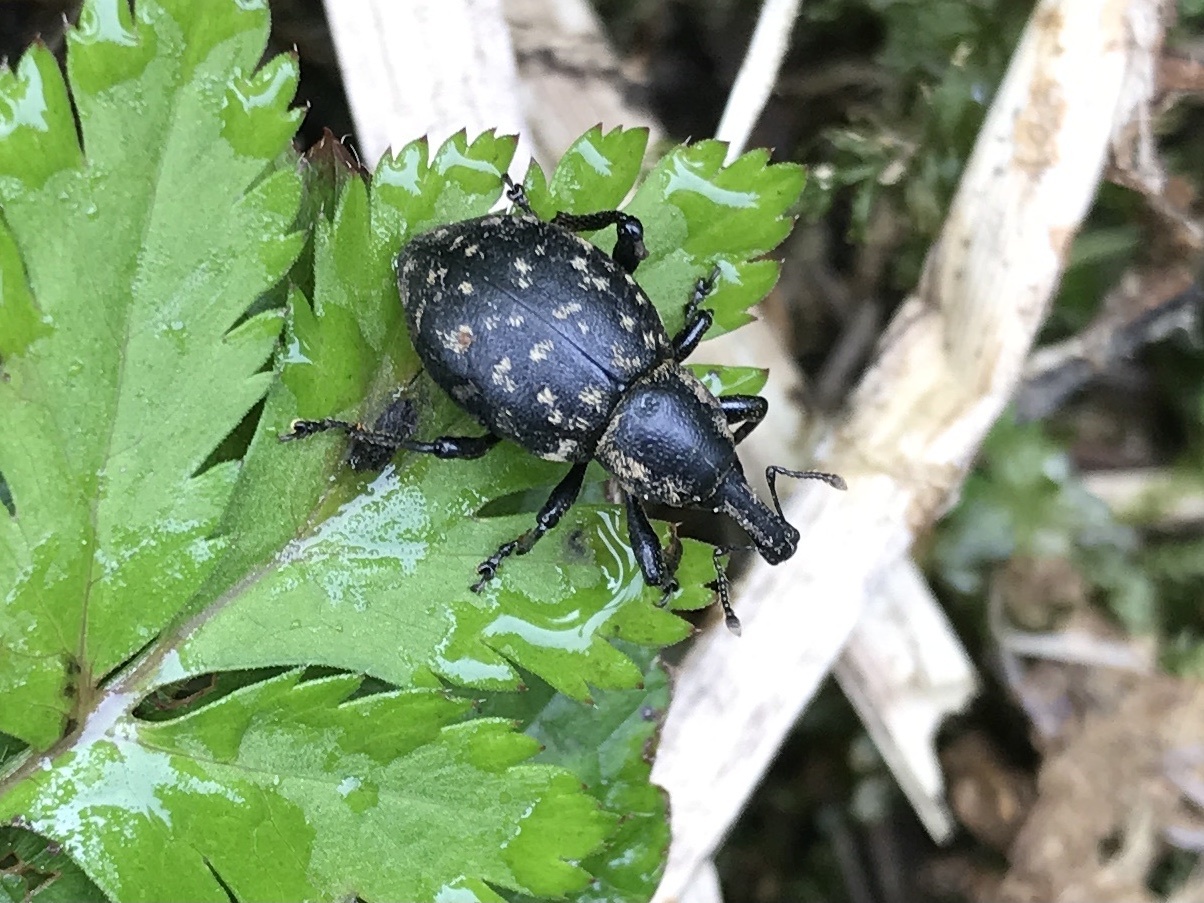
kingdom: Animalia
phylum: Arthropoda
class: Insecta
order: Coleoptera
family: Curculionidae
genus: Liparus
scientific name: Liparus germanus
